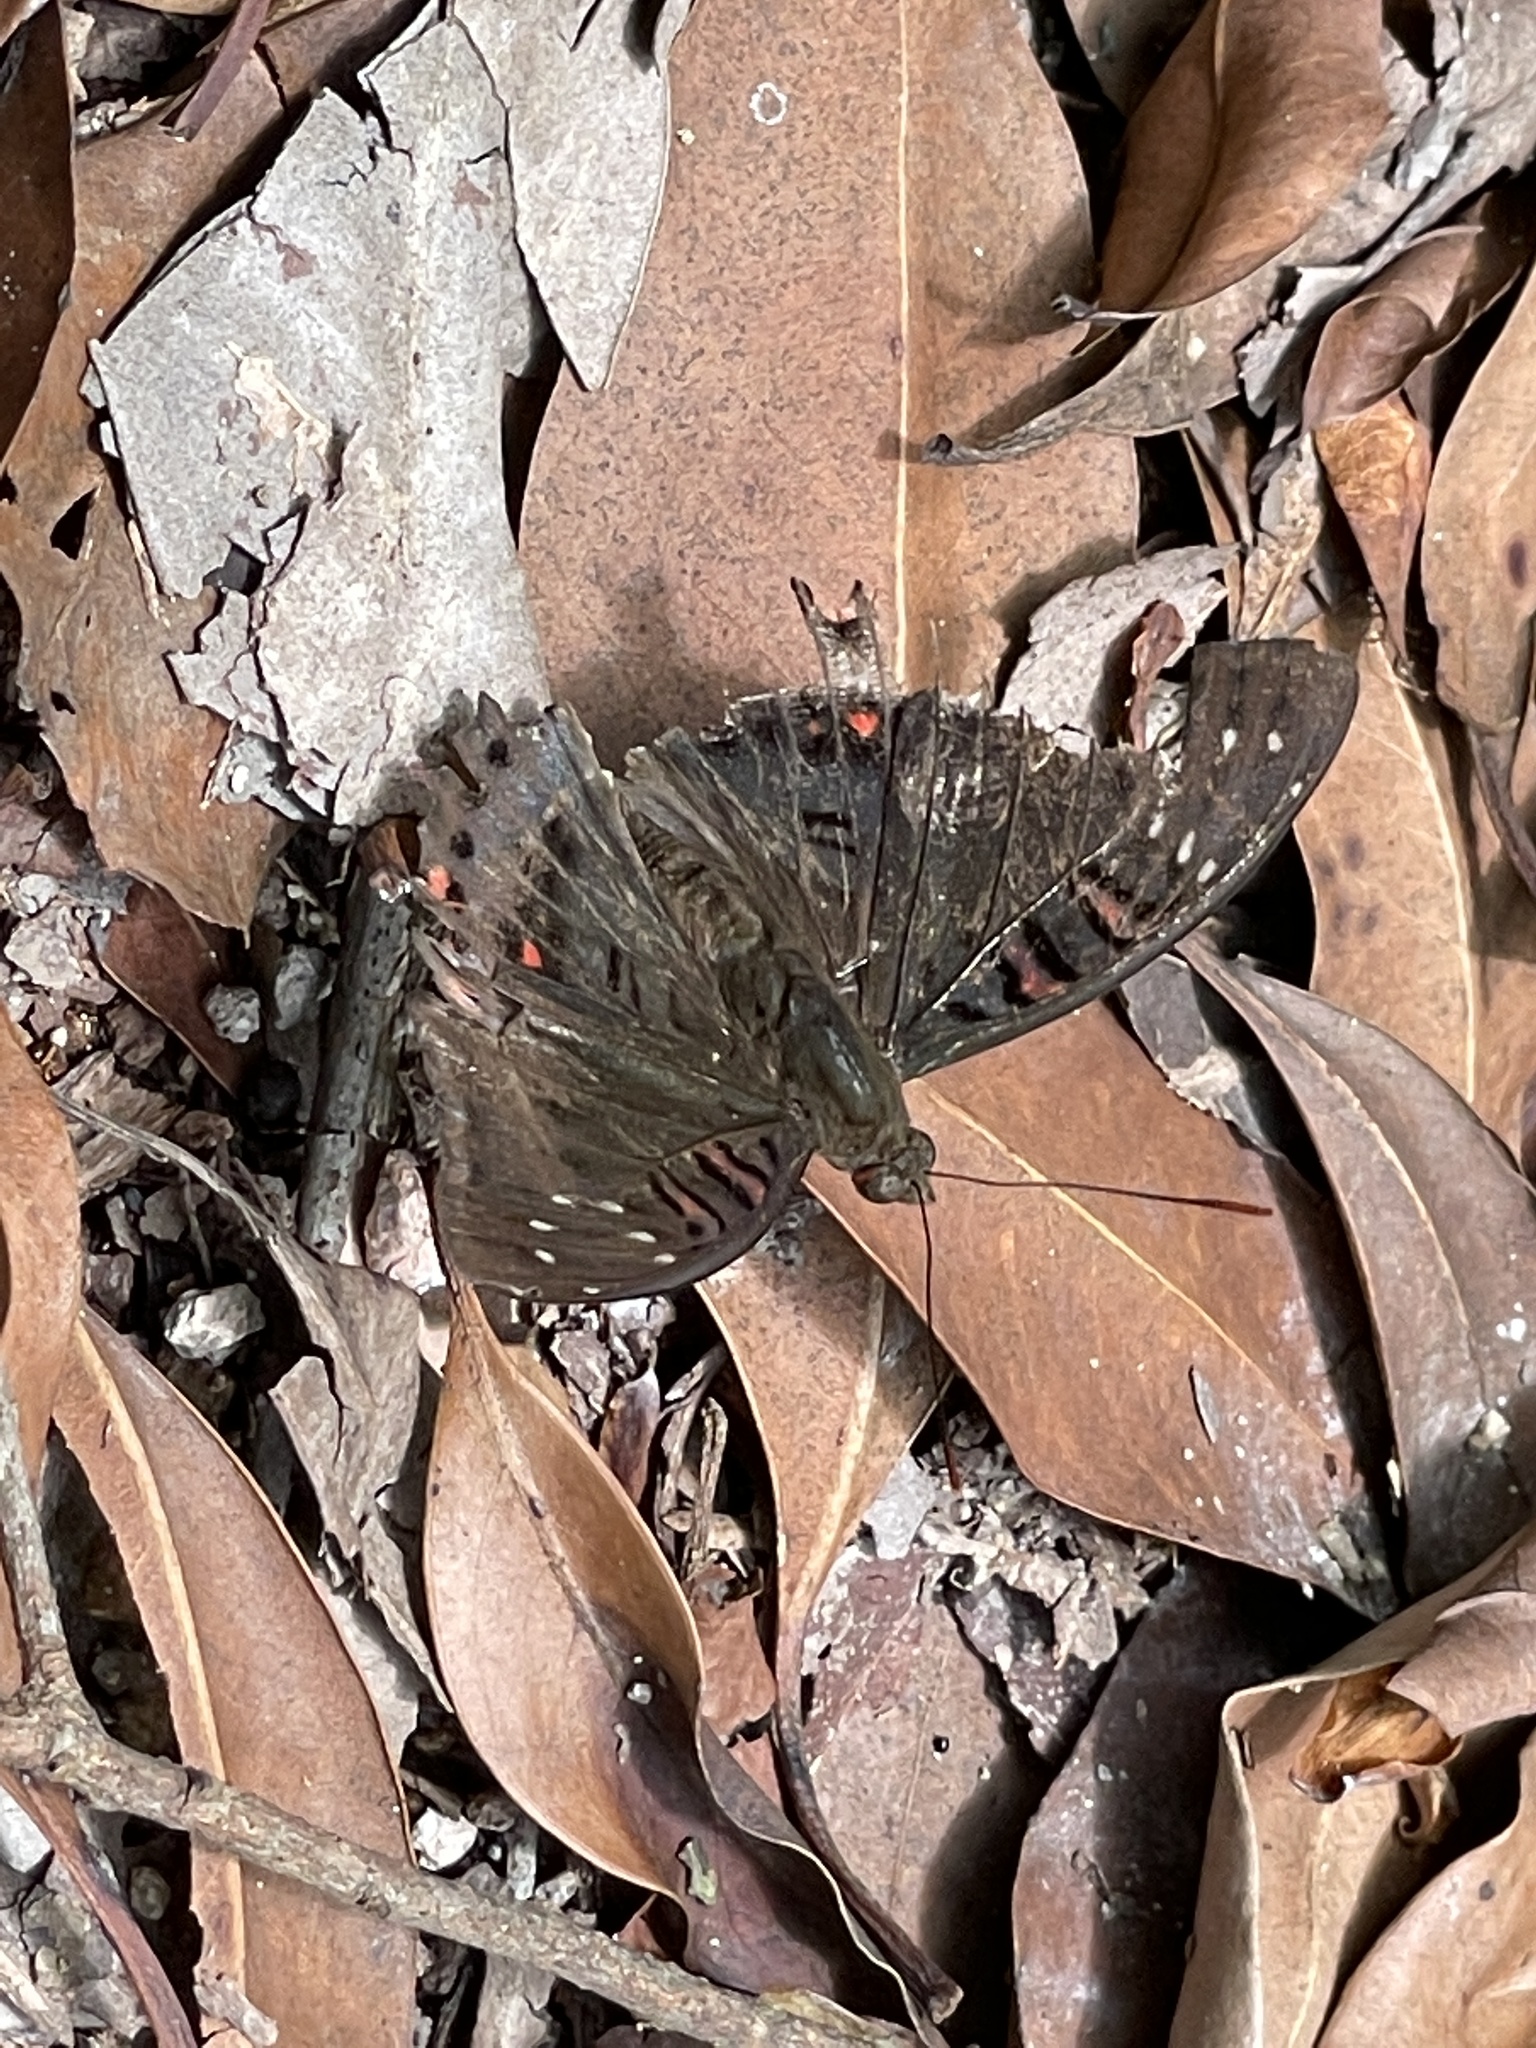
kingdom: Animalia
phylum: Arthropoda
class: Insecta
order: Lepidoptera
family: Nymphalidae
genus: Euthalia
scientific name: Euthalia lubentina
